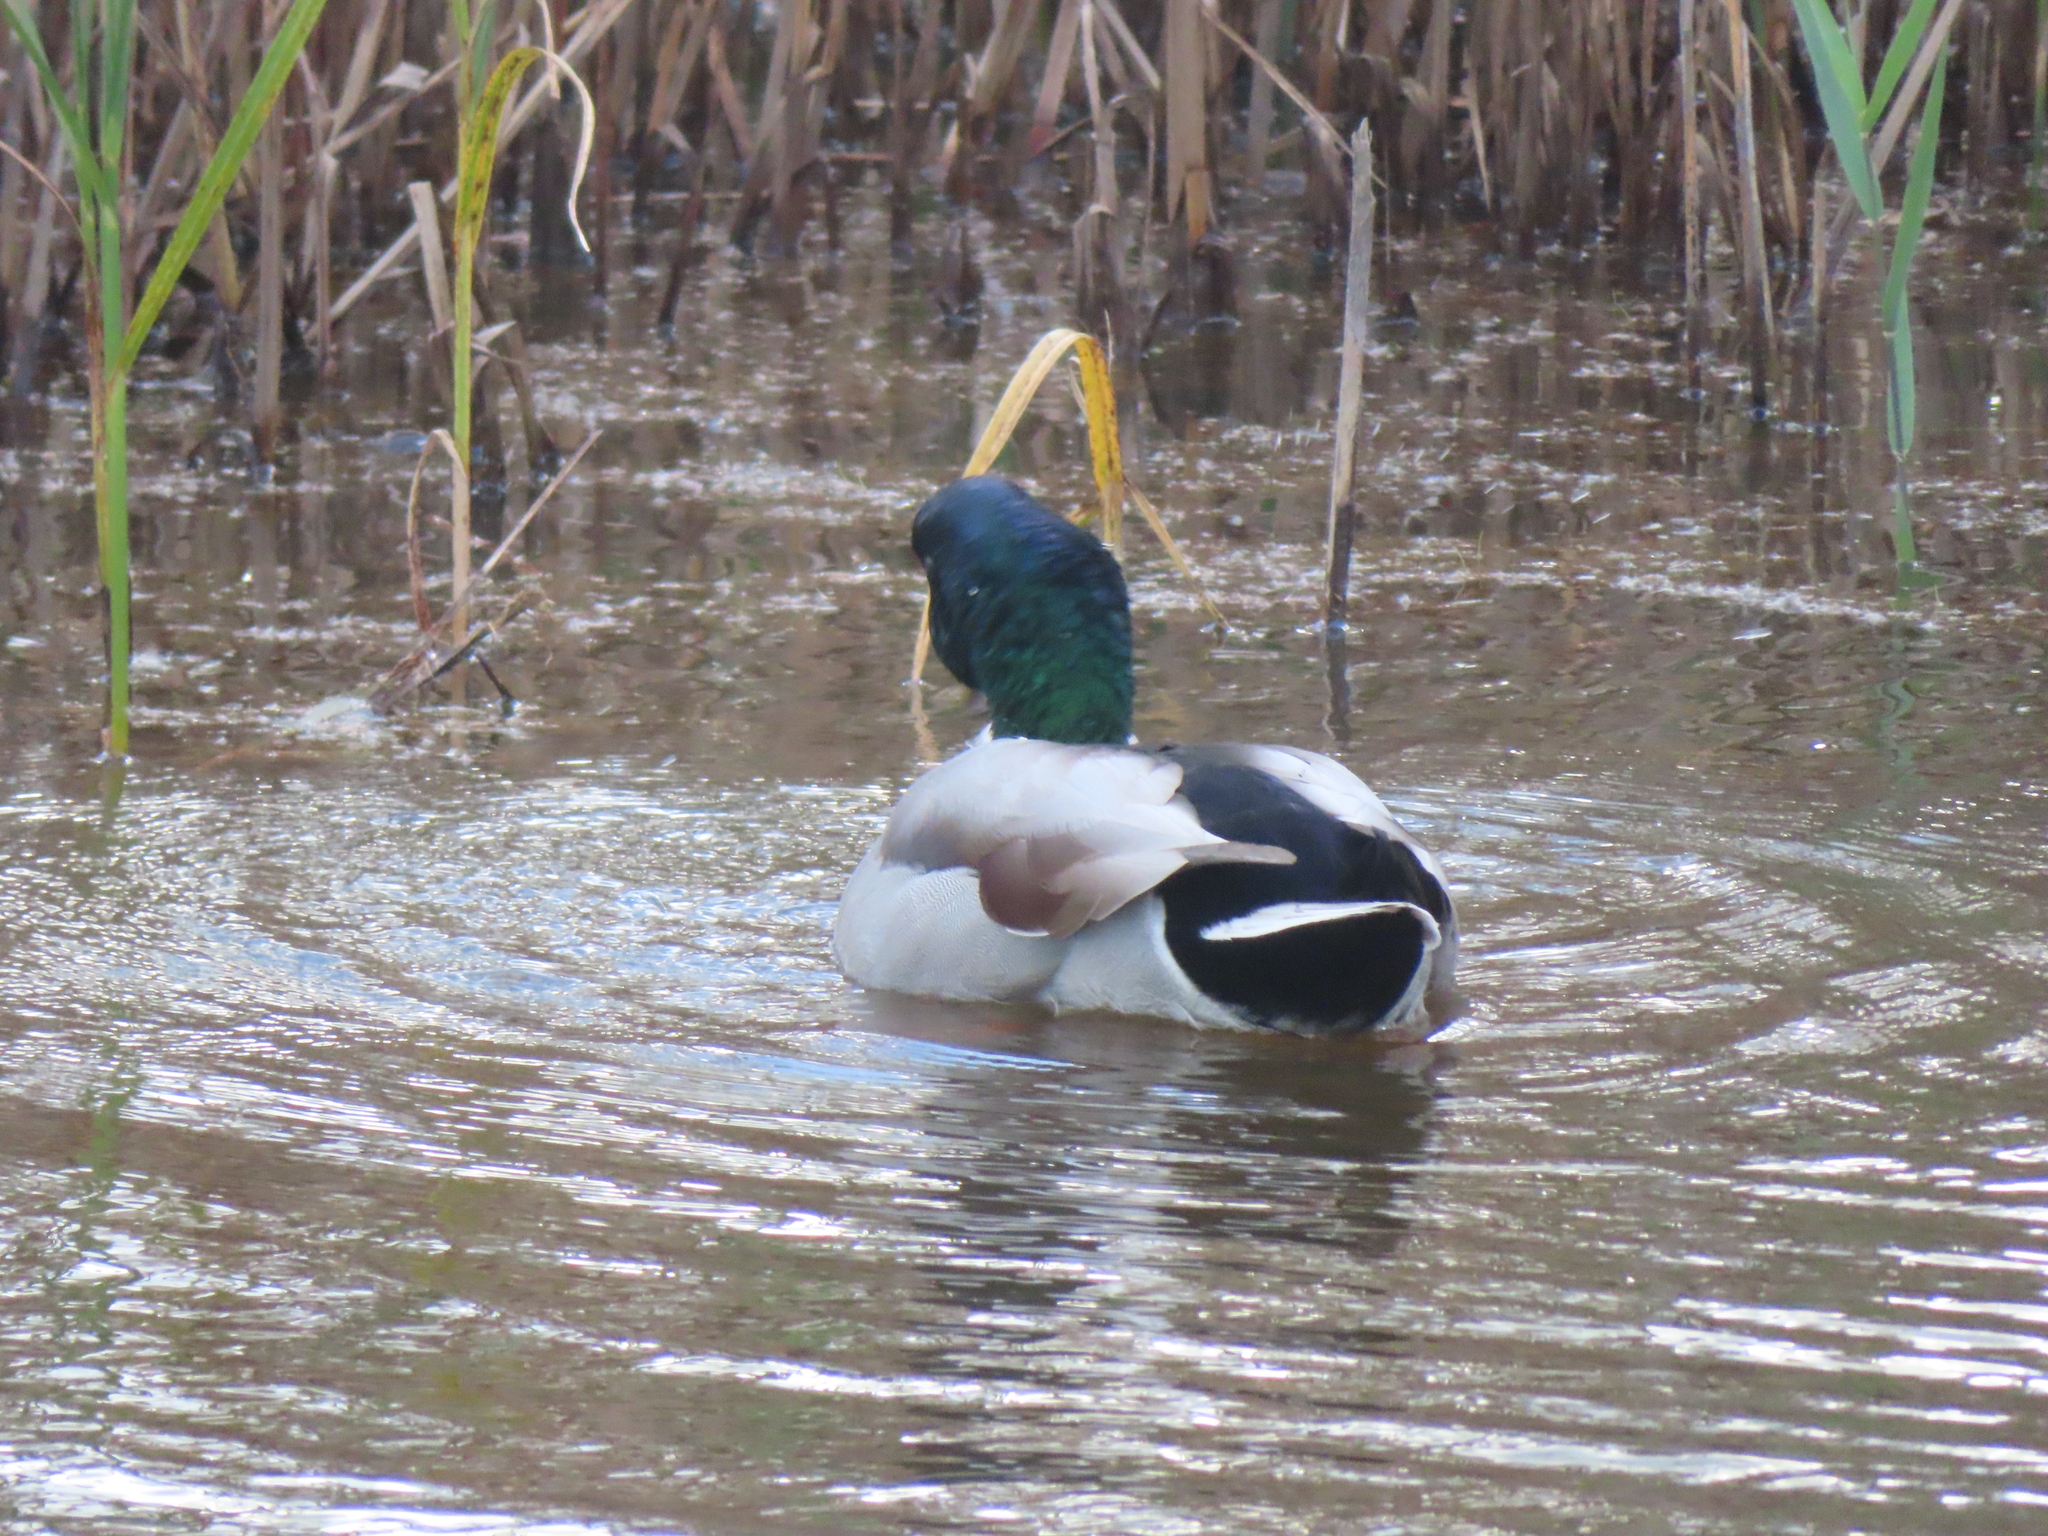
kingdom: Animalia
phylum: Chordata
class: Aves
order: Anseriformes
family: Anatidae
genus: Anas
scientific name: Anas platyrhynchos
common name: Mallard
